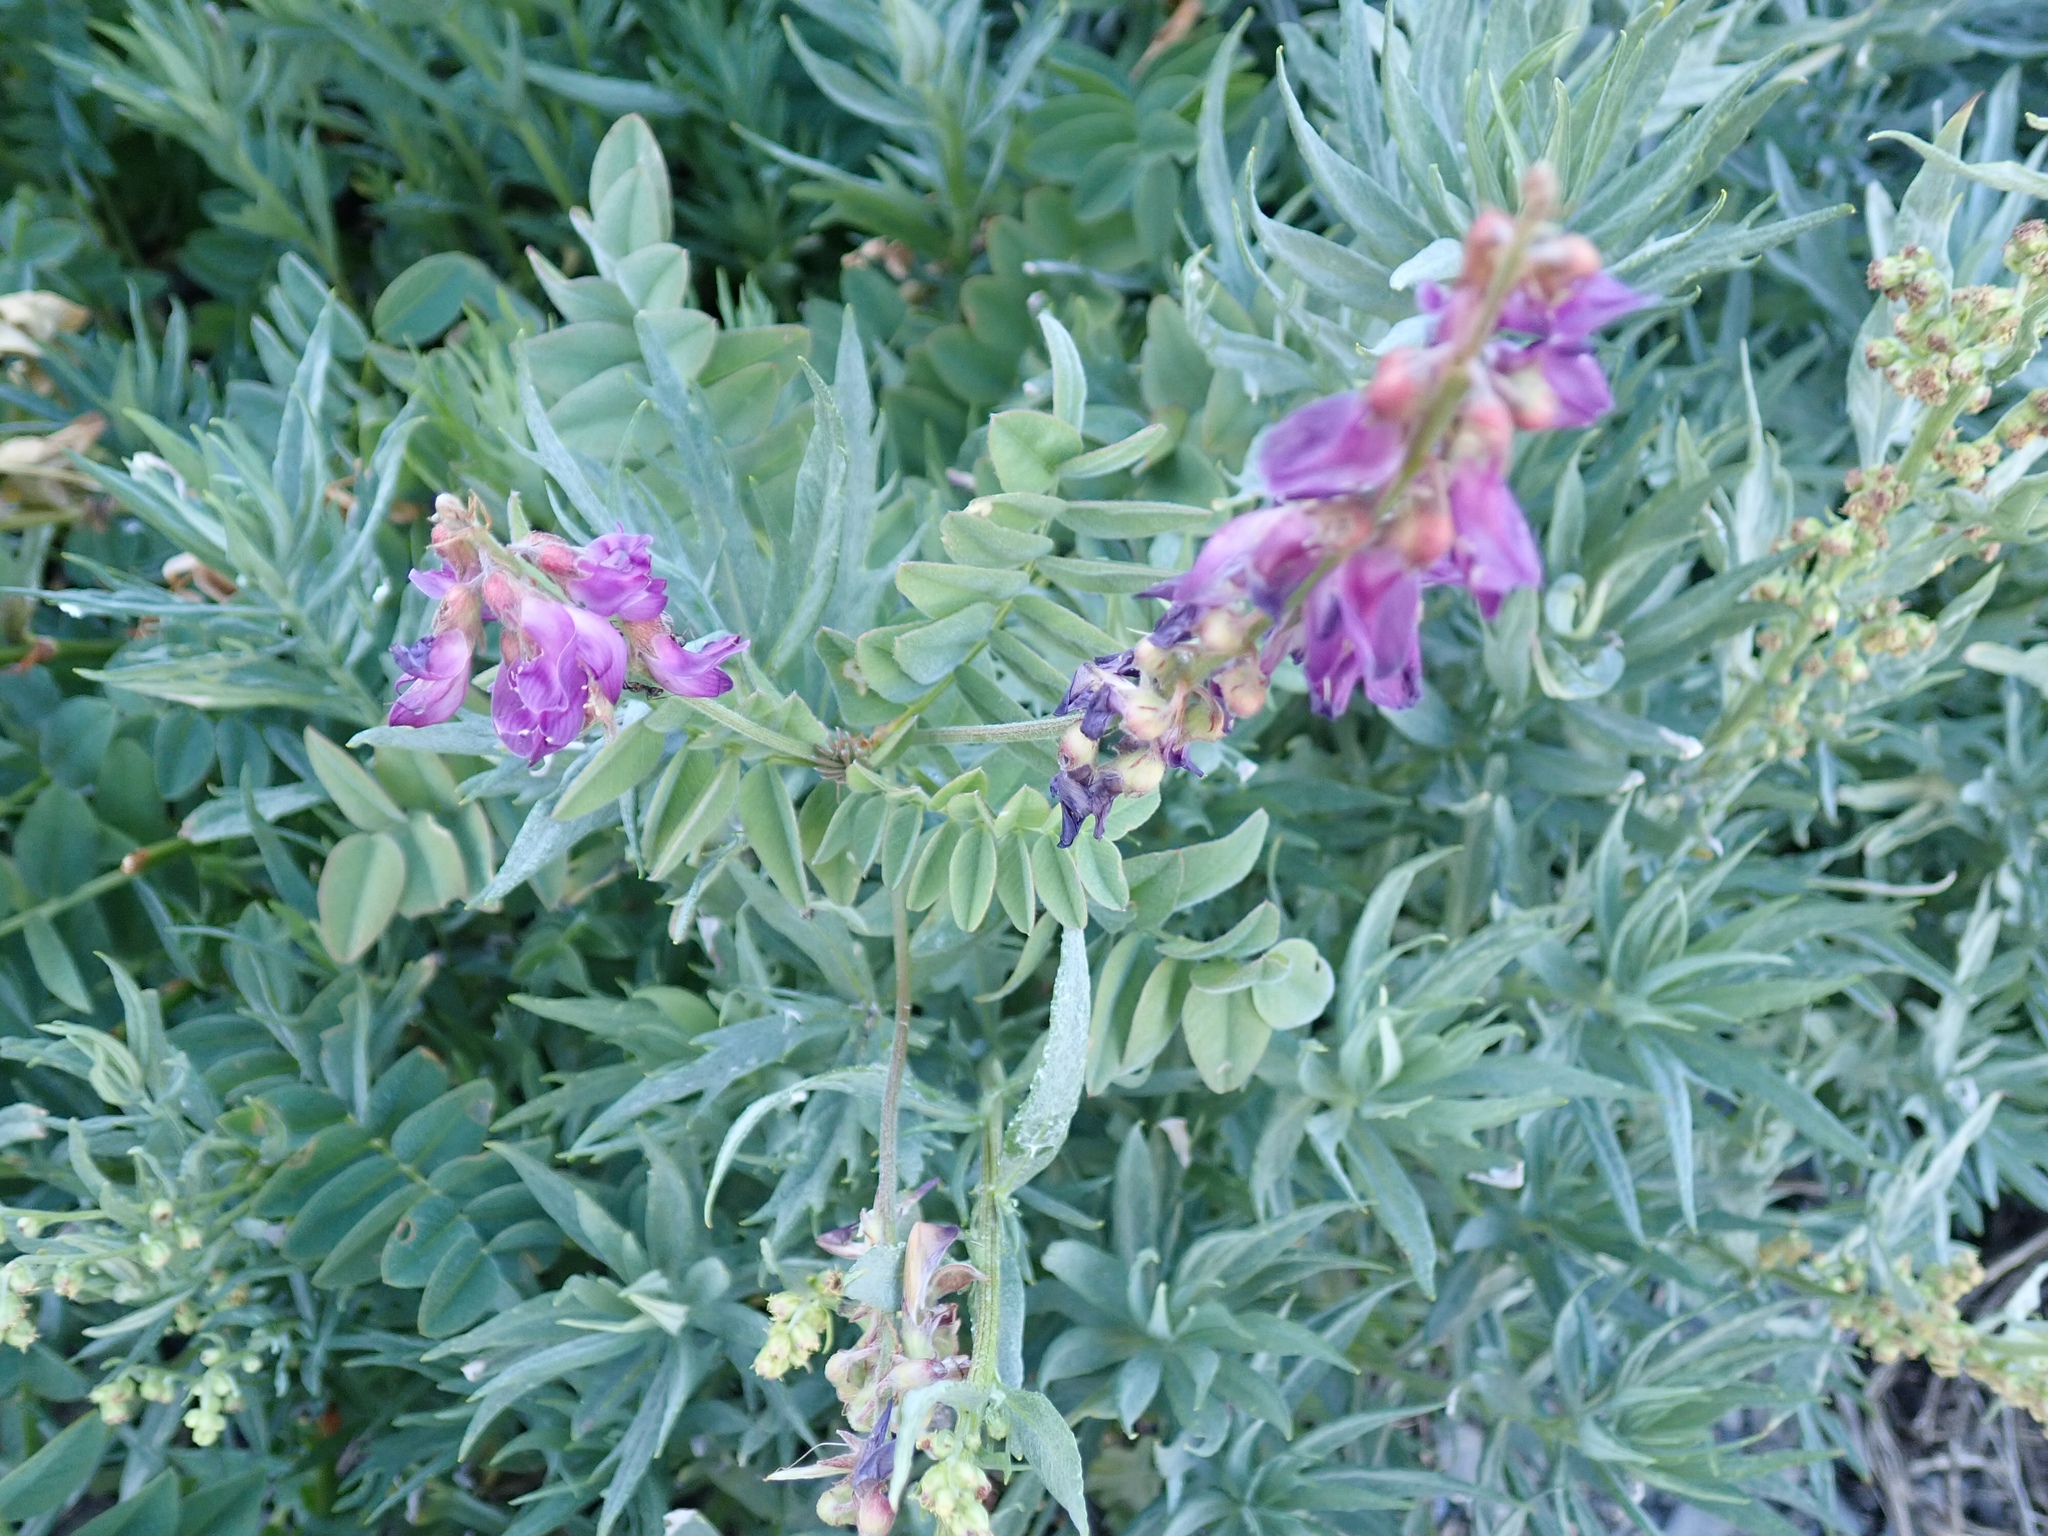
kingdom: Plantae
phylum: Tracheophyta
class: Magnoliopsida
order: Fabales
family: Fabaceae
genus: Hedysarum
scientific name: Hedysarum occidentale
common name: Western hedysarum
